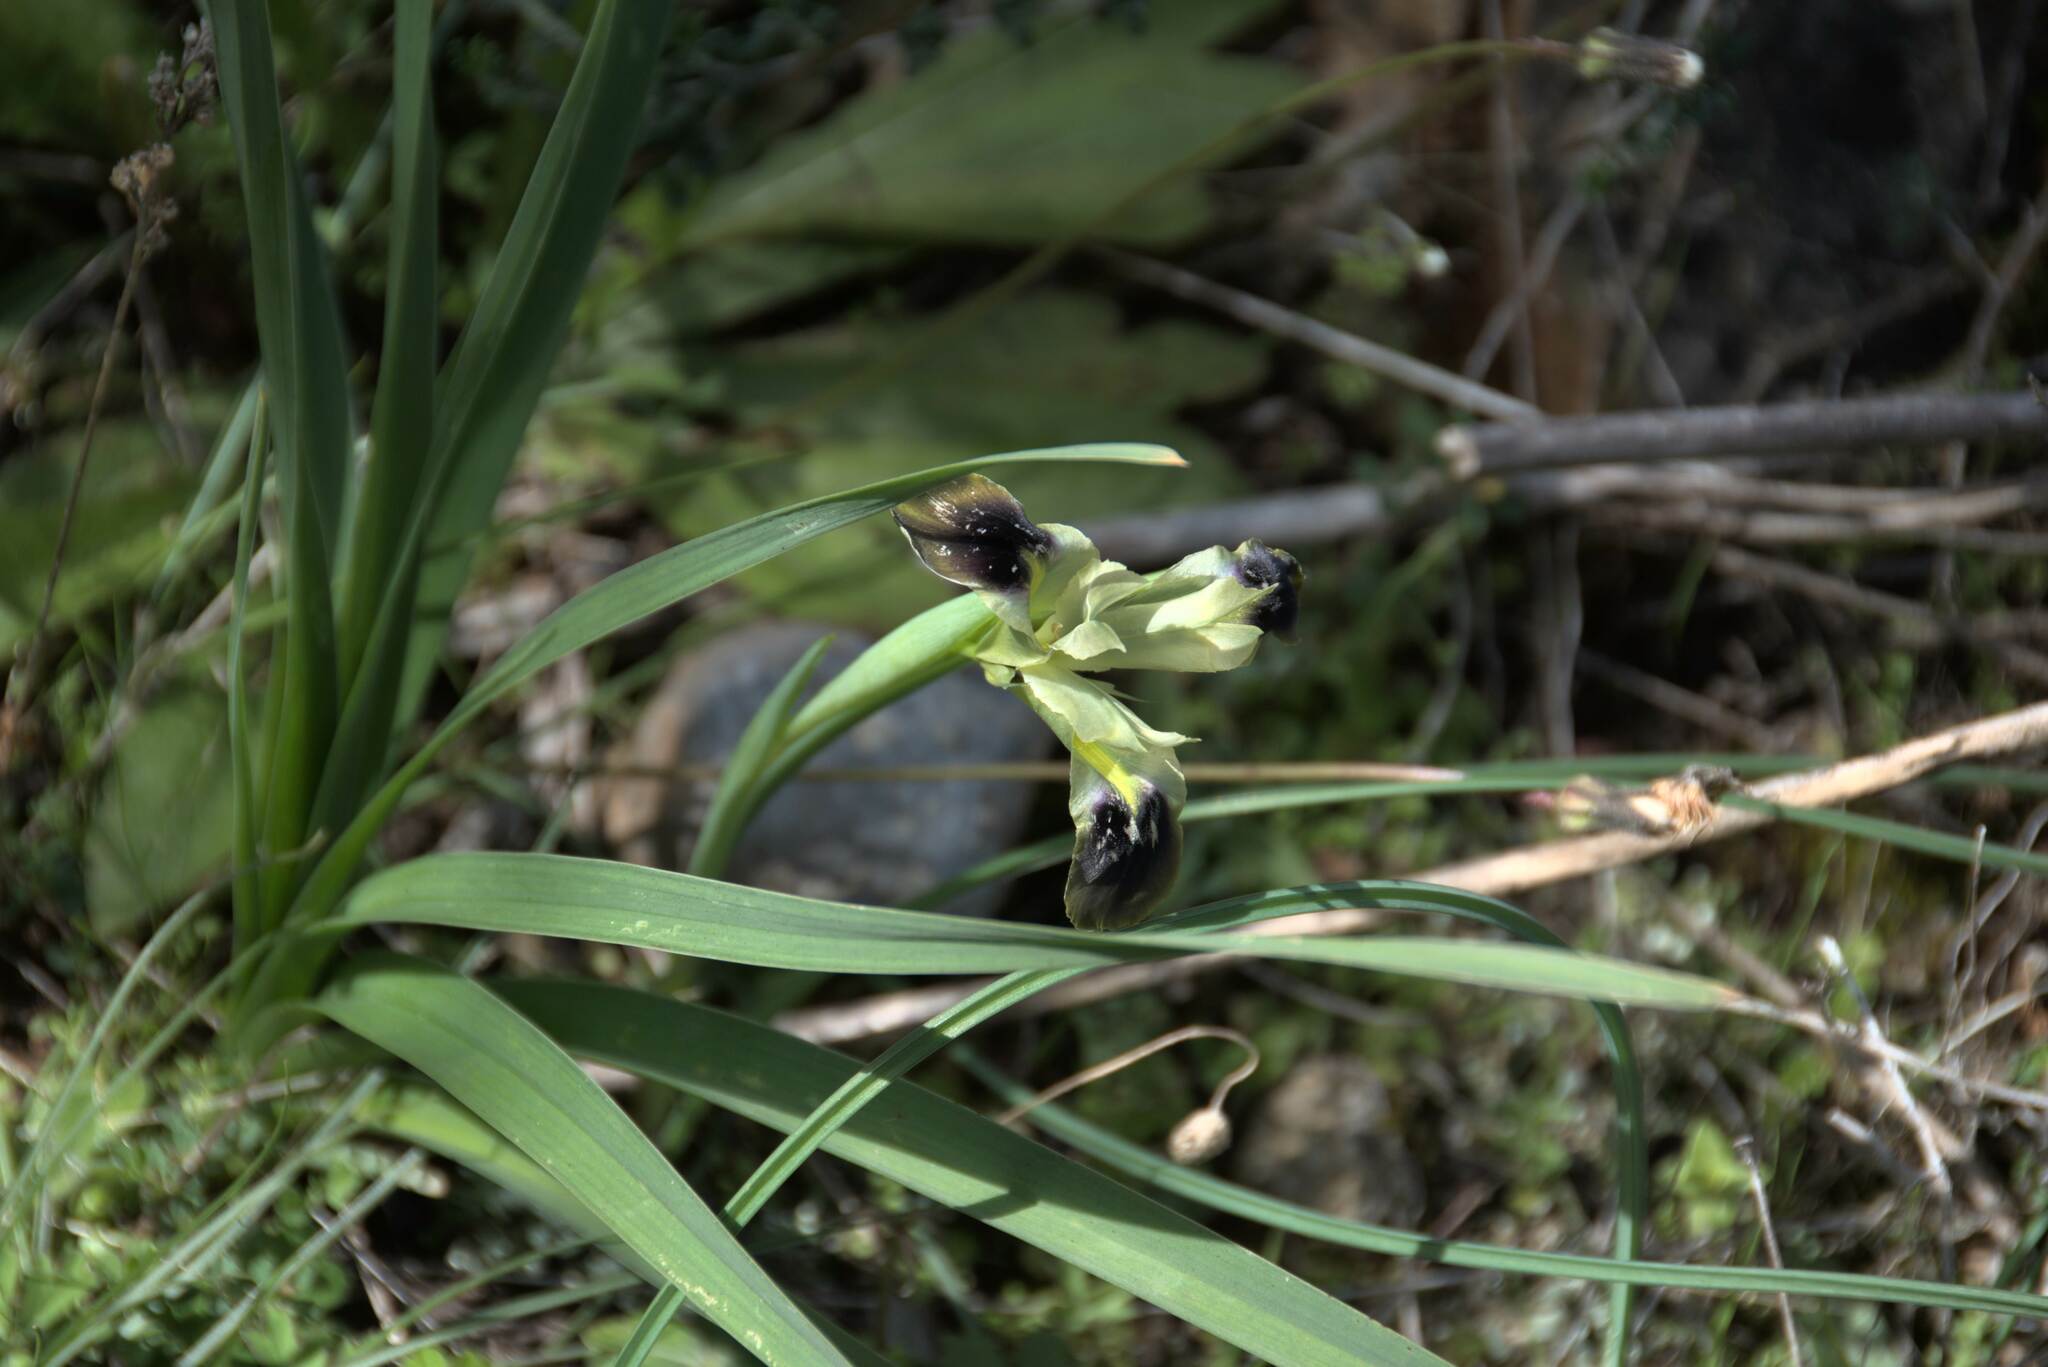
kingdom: Plantae
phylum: Tracheophyta
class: Liliopsida
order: Asparagales
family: Iridaceae
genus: Iris
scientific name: Iris tuberosa
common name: Snake's-head iris
